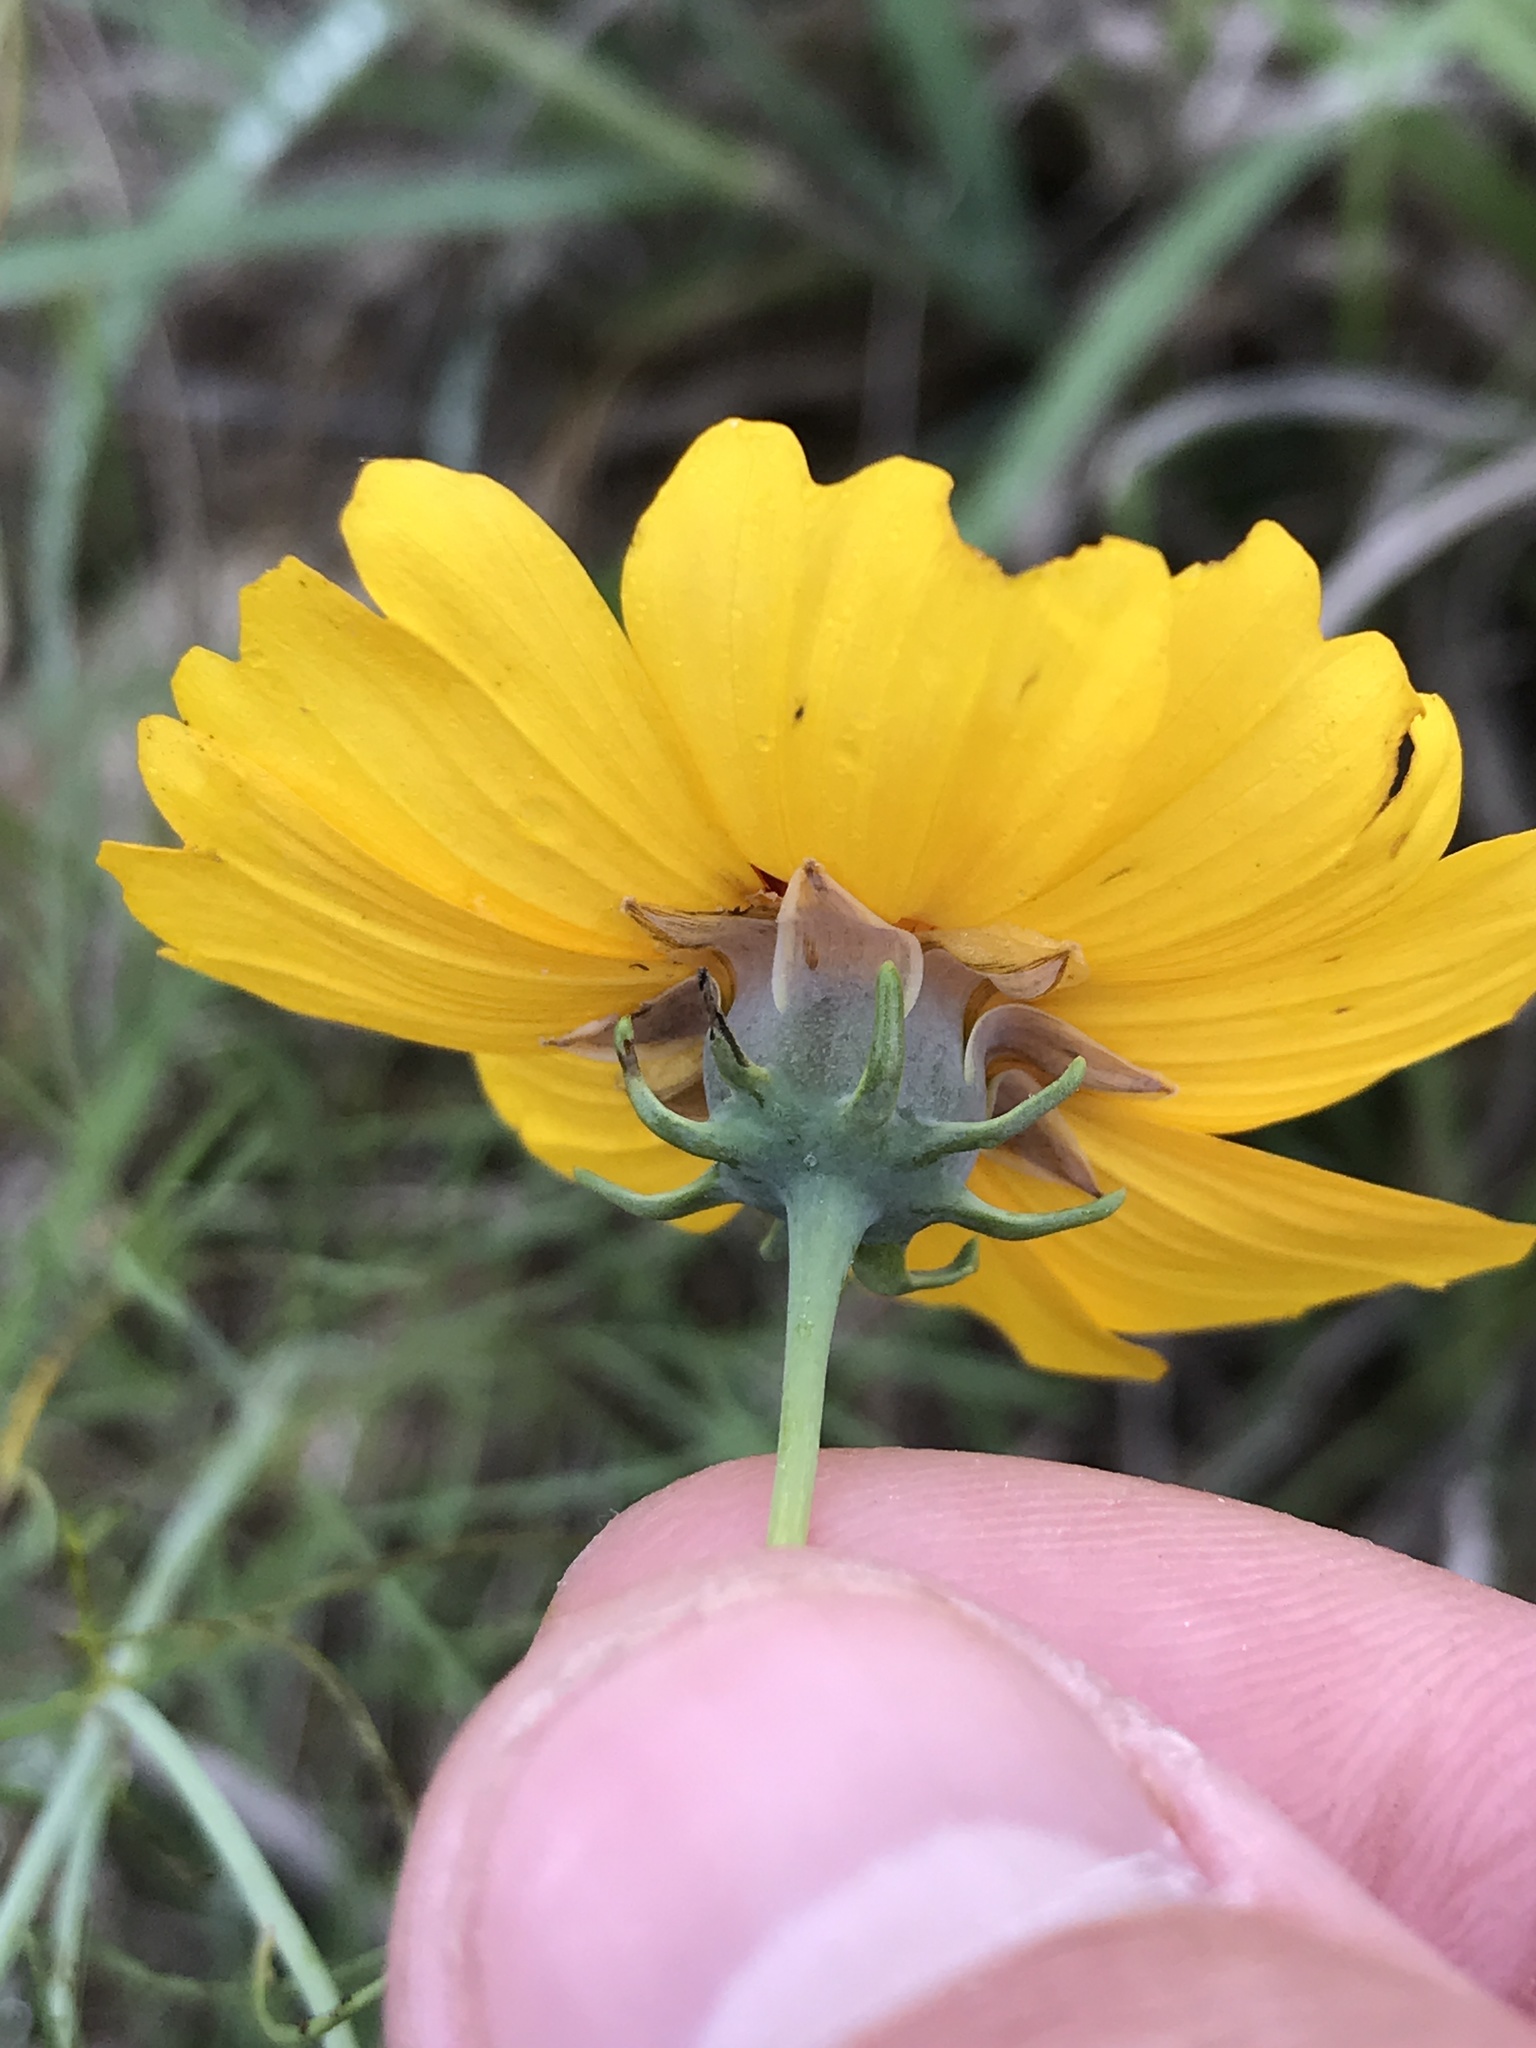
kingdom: Plantae
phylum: Tracheophyta
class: Magnoliopsida
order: Asterales
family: Asteraceae
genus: Thelesperma
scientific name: Thelesperma filifolium
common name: Stiff greenthread
